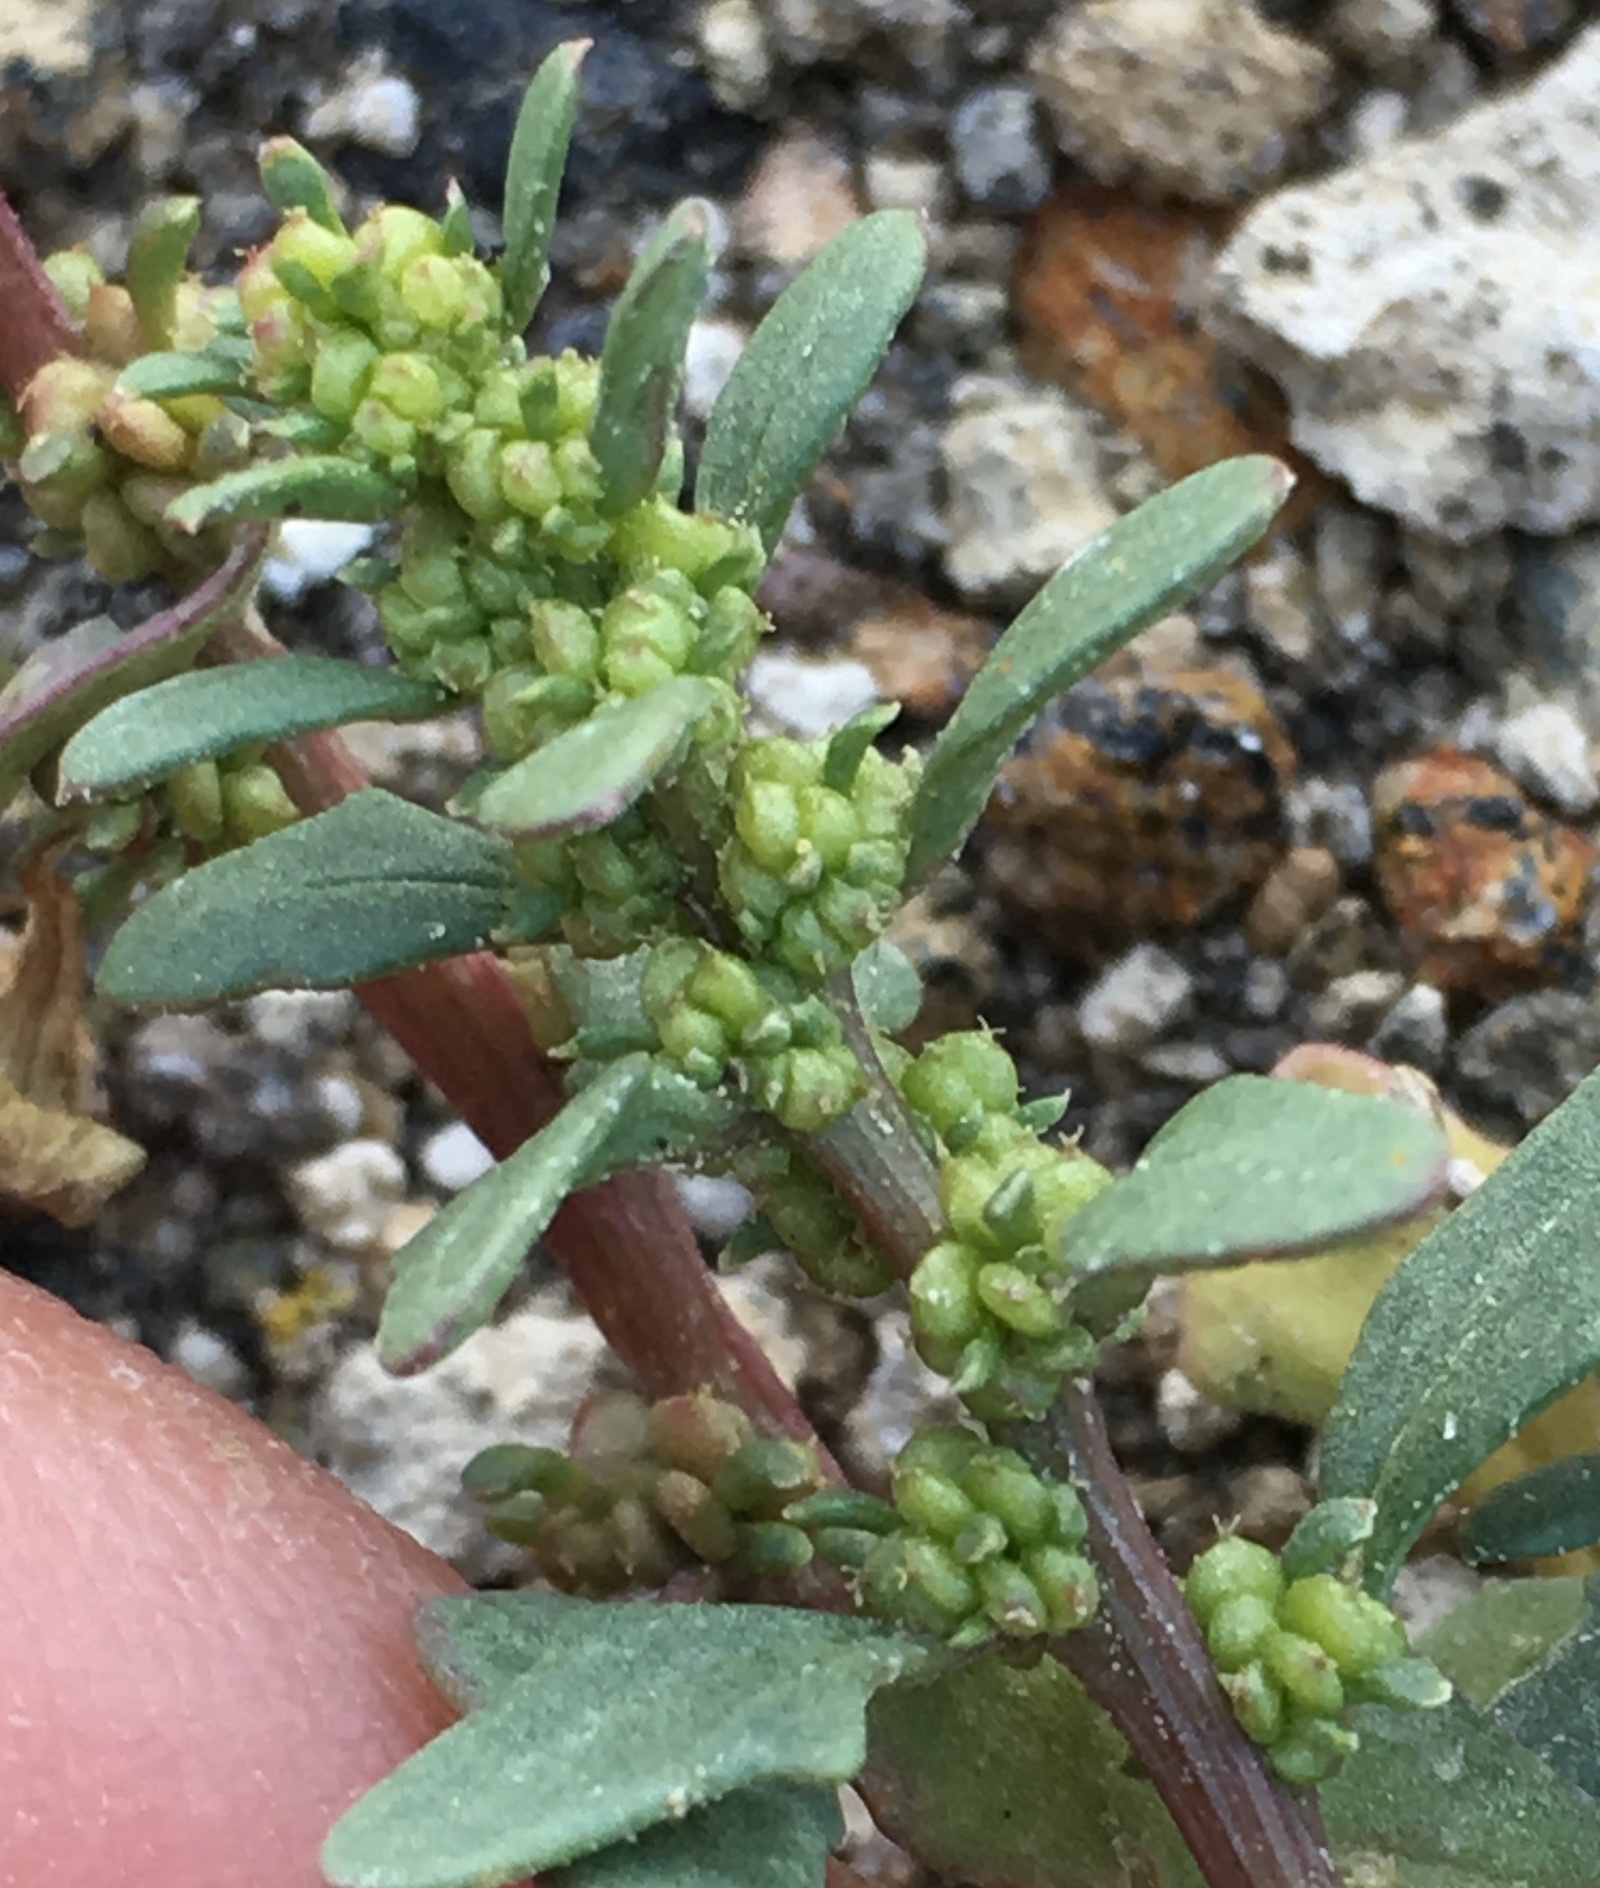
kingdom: Plantae
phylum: Tracheophyta
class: Magnoliopsida
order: Caryophyllales
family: Amaranthaceae
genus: Blitum
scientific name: Blitum nuttallianum
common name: Poverty-weed
